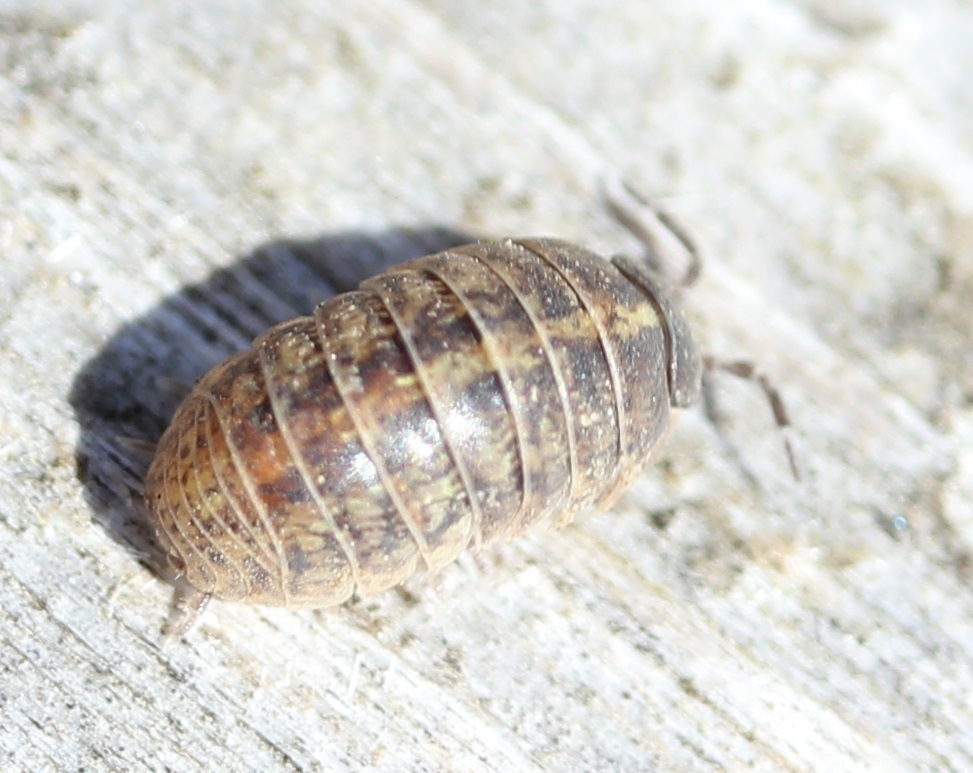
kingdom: Animalia
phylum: Arthropoda
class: Malacostraca
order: Isopoda
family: Armadillidiidae
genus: Armadillidium
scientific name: Armadillidium vulgare
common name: Common pill woodlouse
